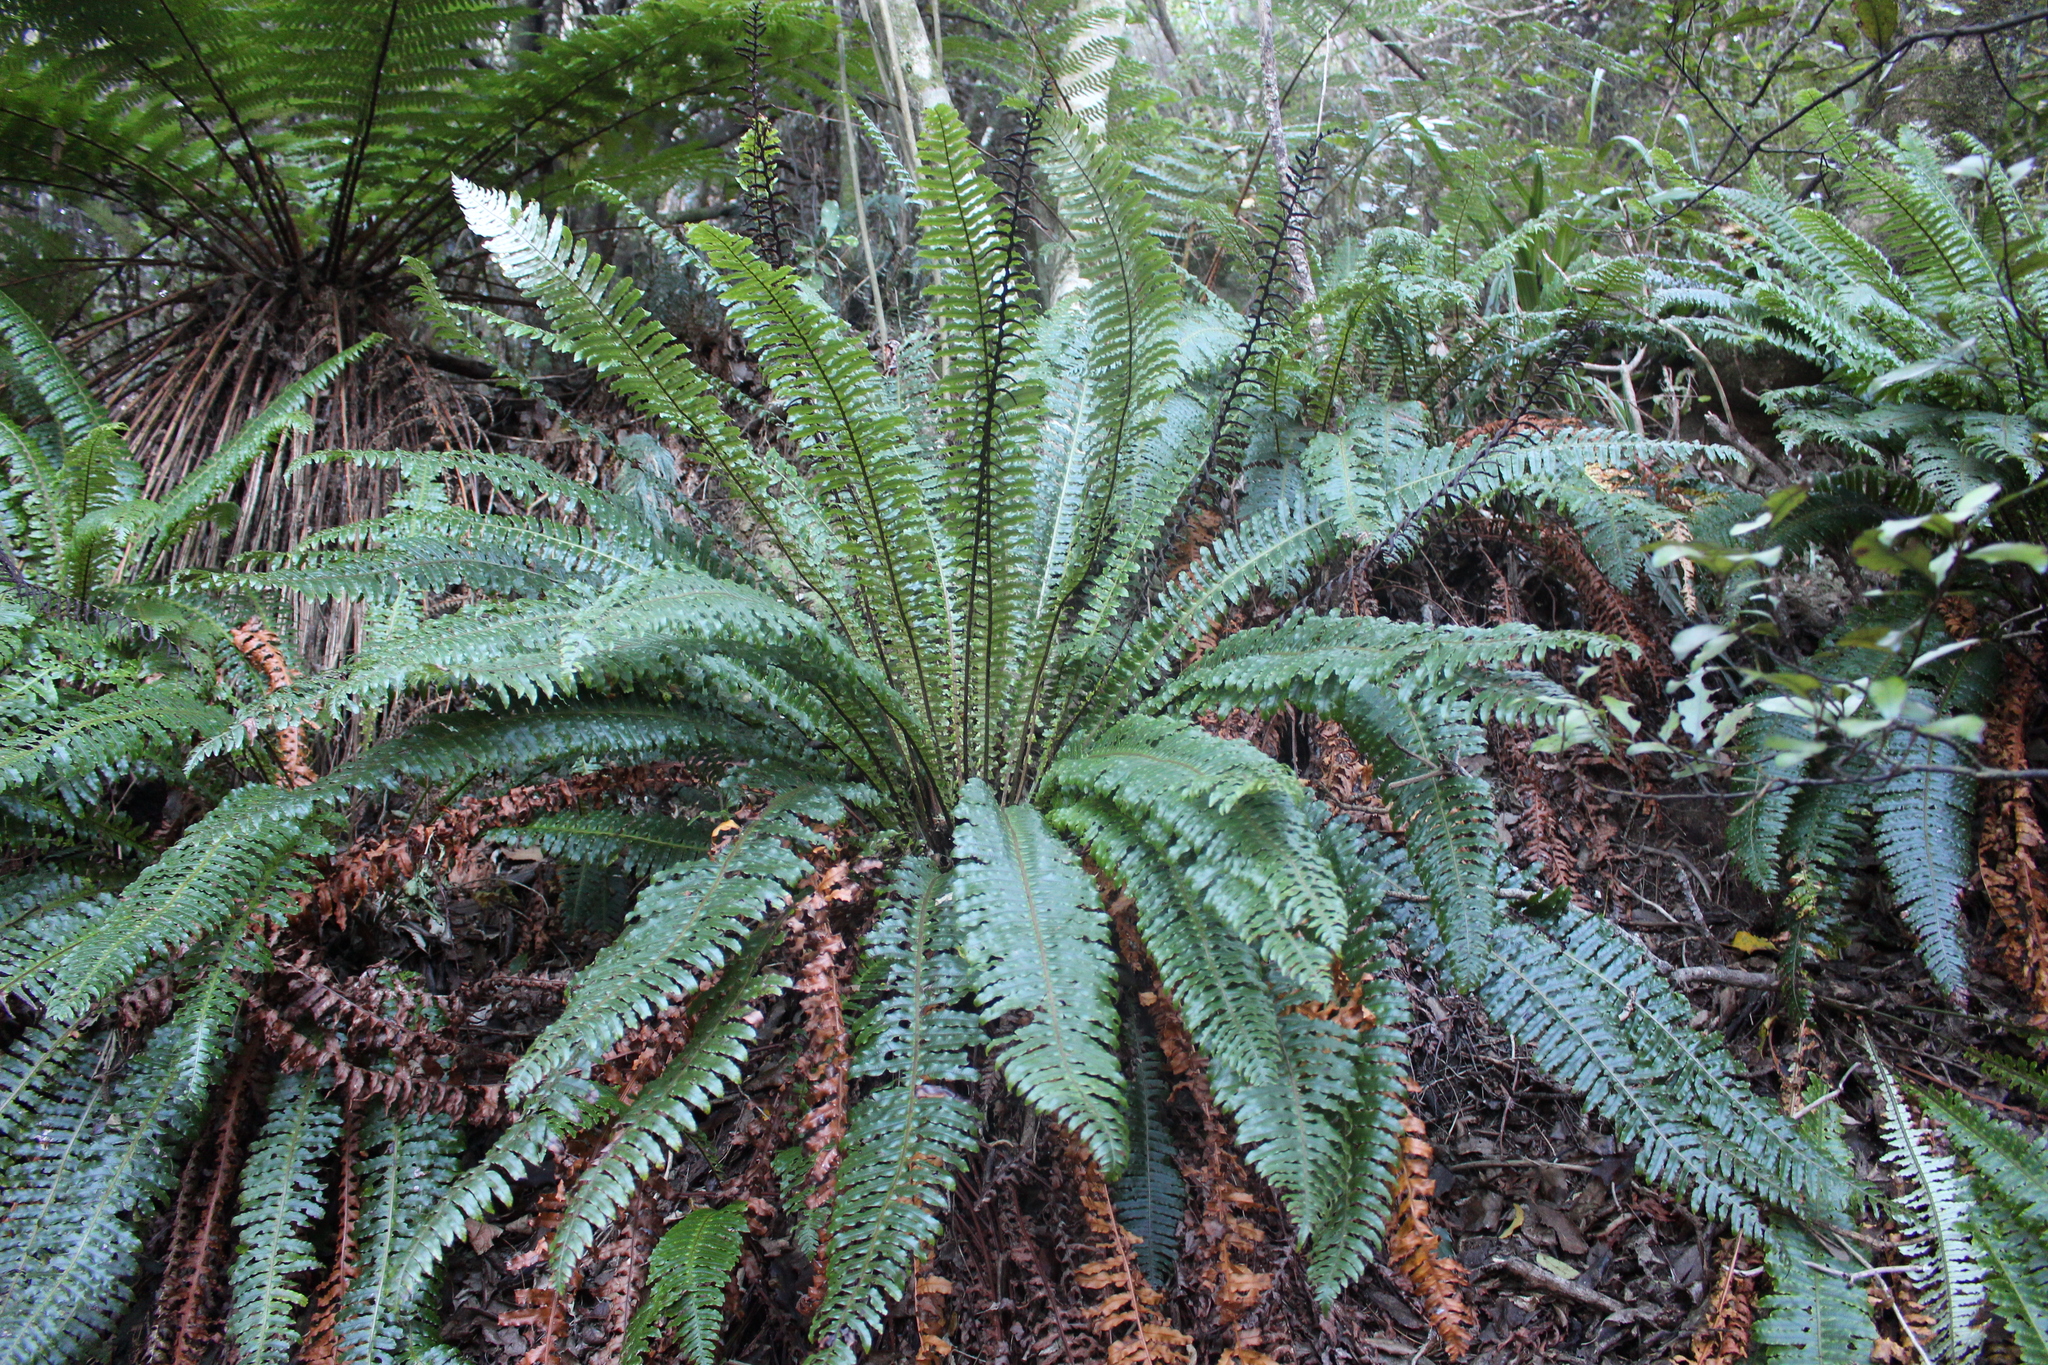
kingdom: Plantae
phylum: Tracheophyta
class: Polypodiopsida
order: Polypodiales
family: Blechnaceae
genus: Lomaria
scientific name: Lomaria discolor
